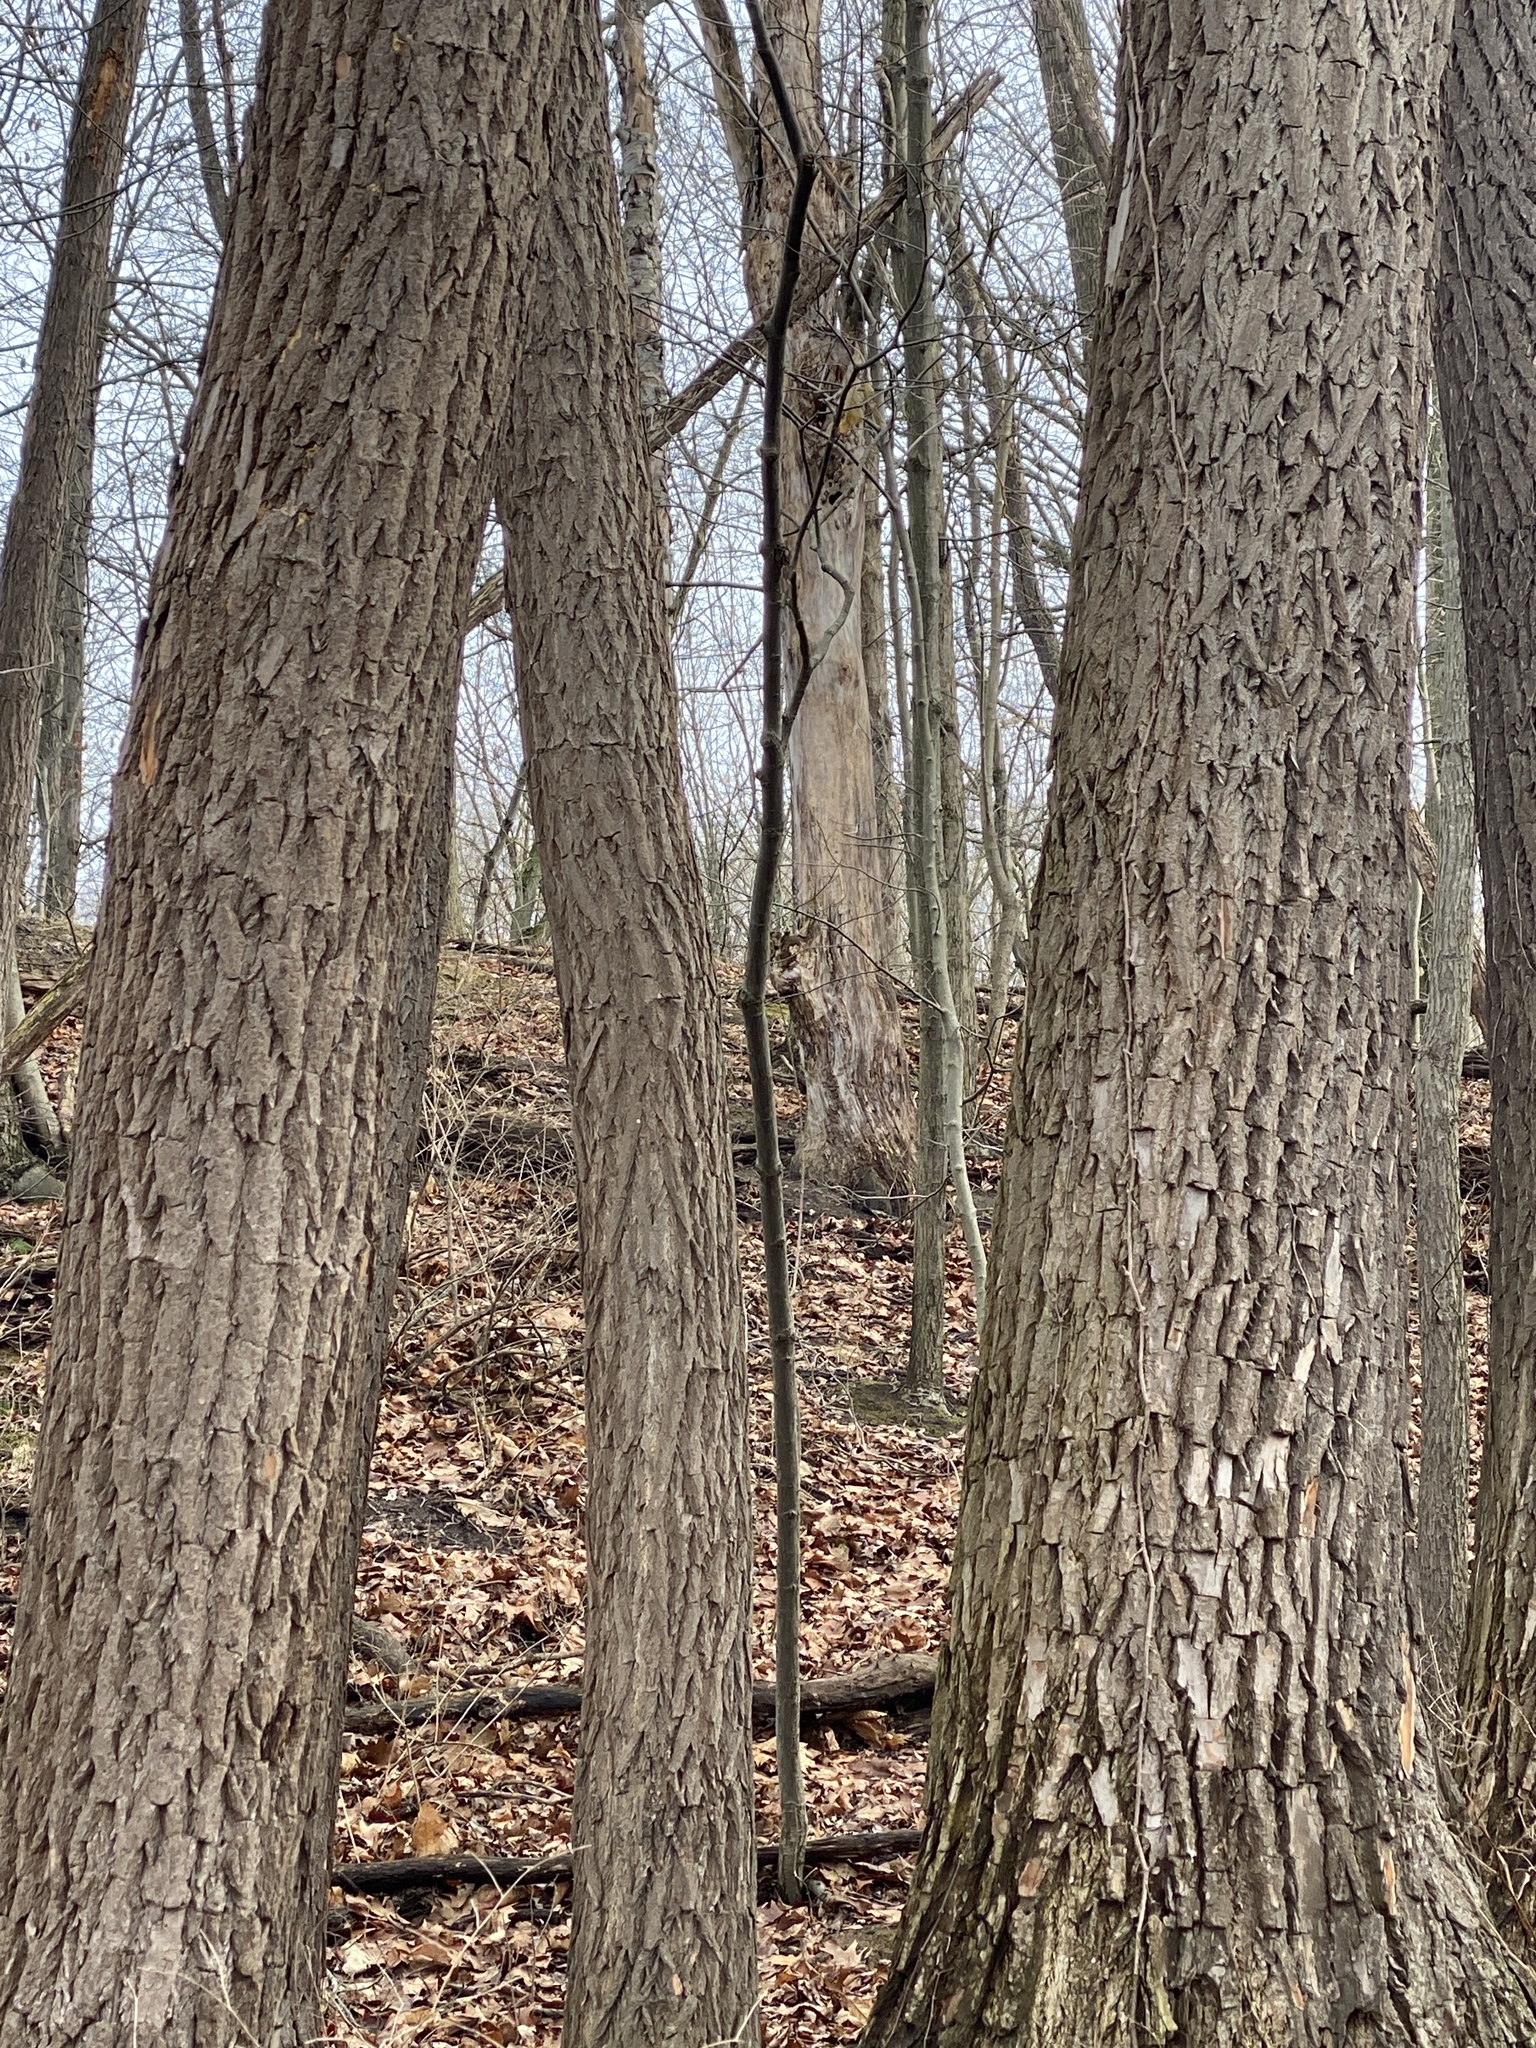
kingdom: Plantae
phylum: Tracheophyta
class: Magnoliopsida
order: Laurales
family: Lauraceae
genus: Sassafras
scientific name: Sassafras albidum
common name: Sassafras
